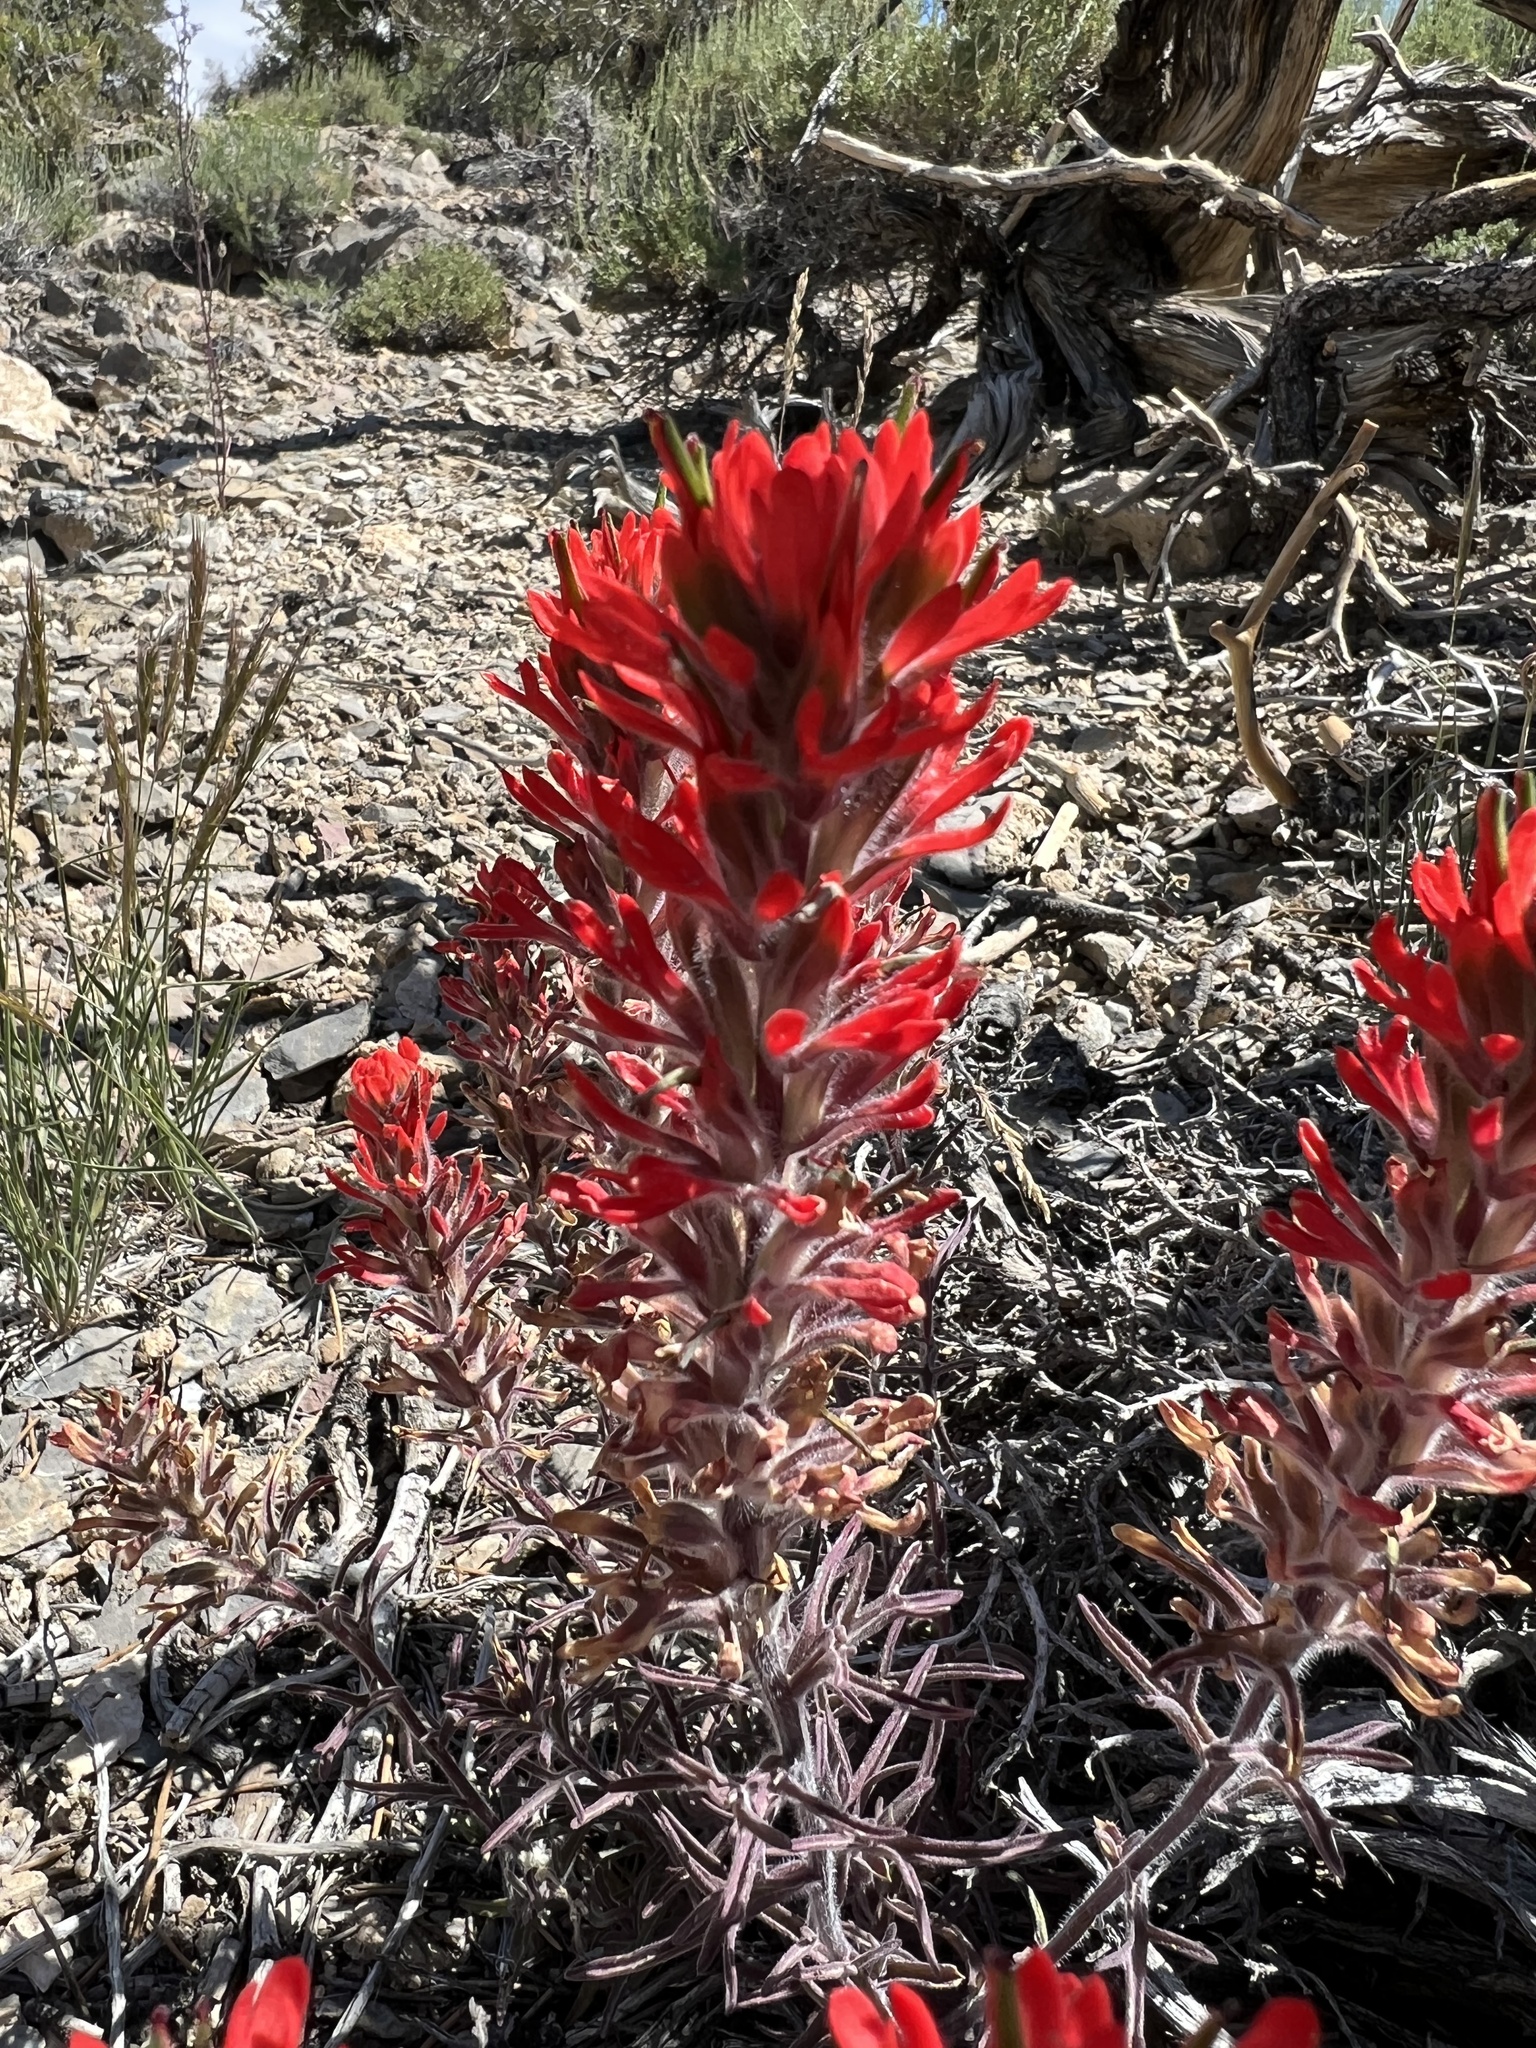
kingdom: Plantae
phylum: Tracheophyta
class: Magnoliopsida
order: Lamiales
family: Orobanchaceae
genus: Castilleja
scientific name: Castilleja chromosa
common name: Desert paintbrush
